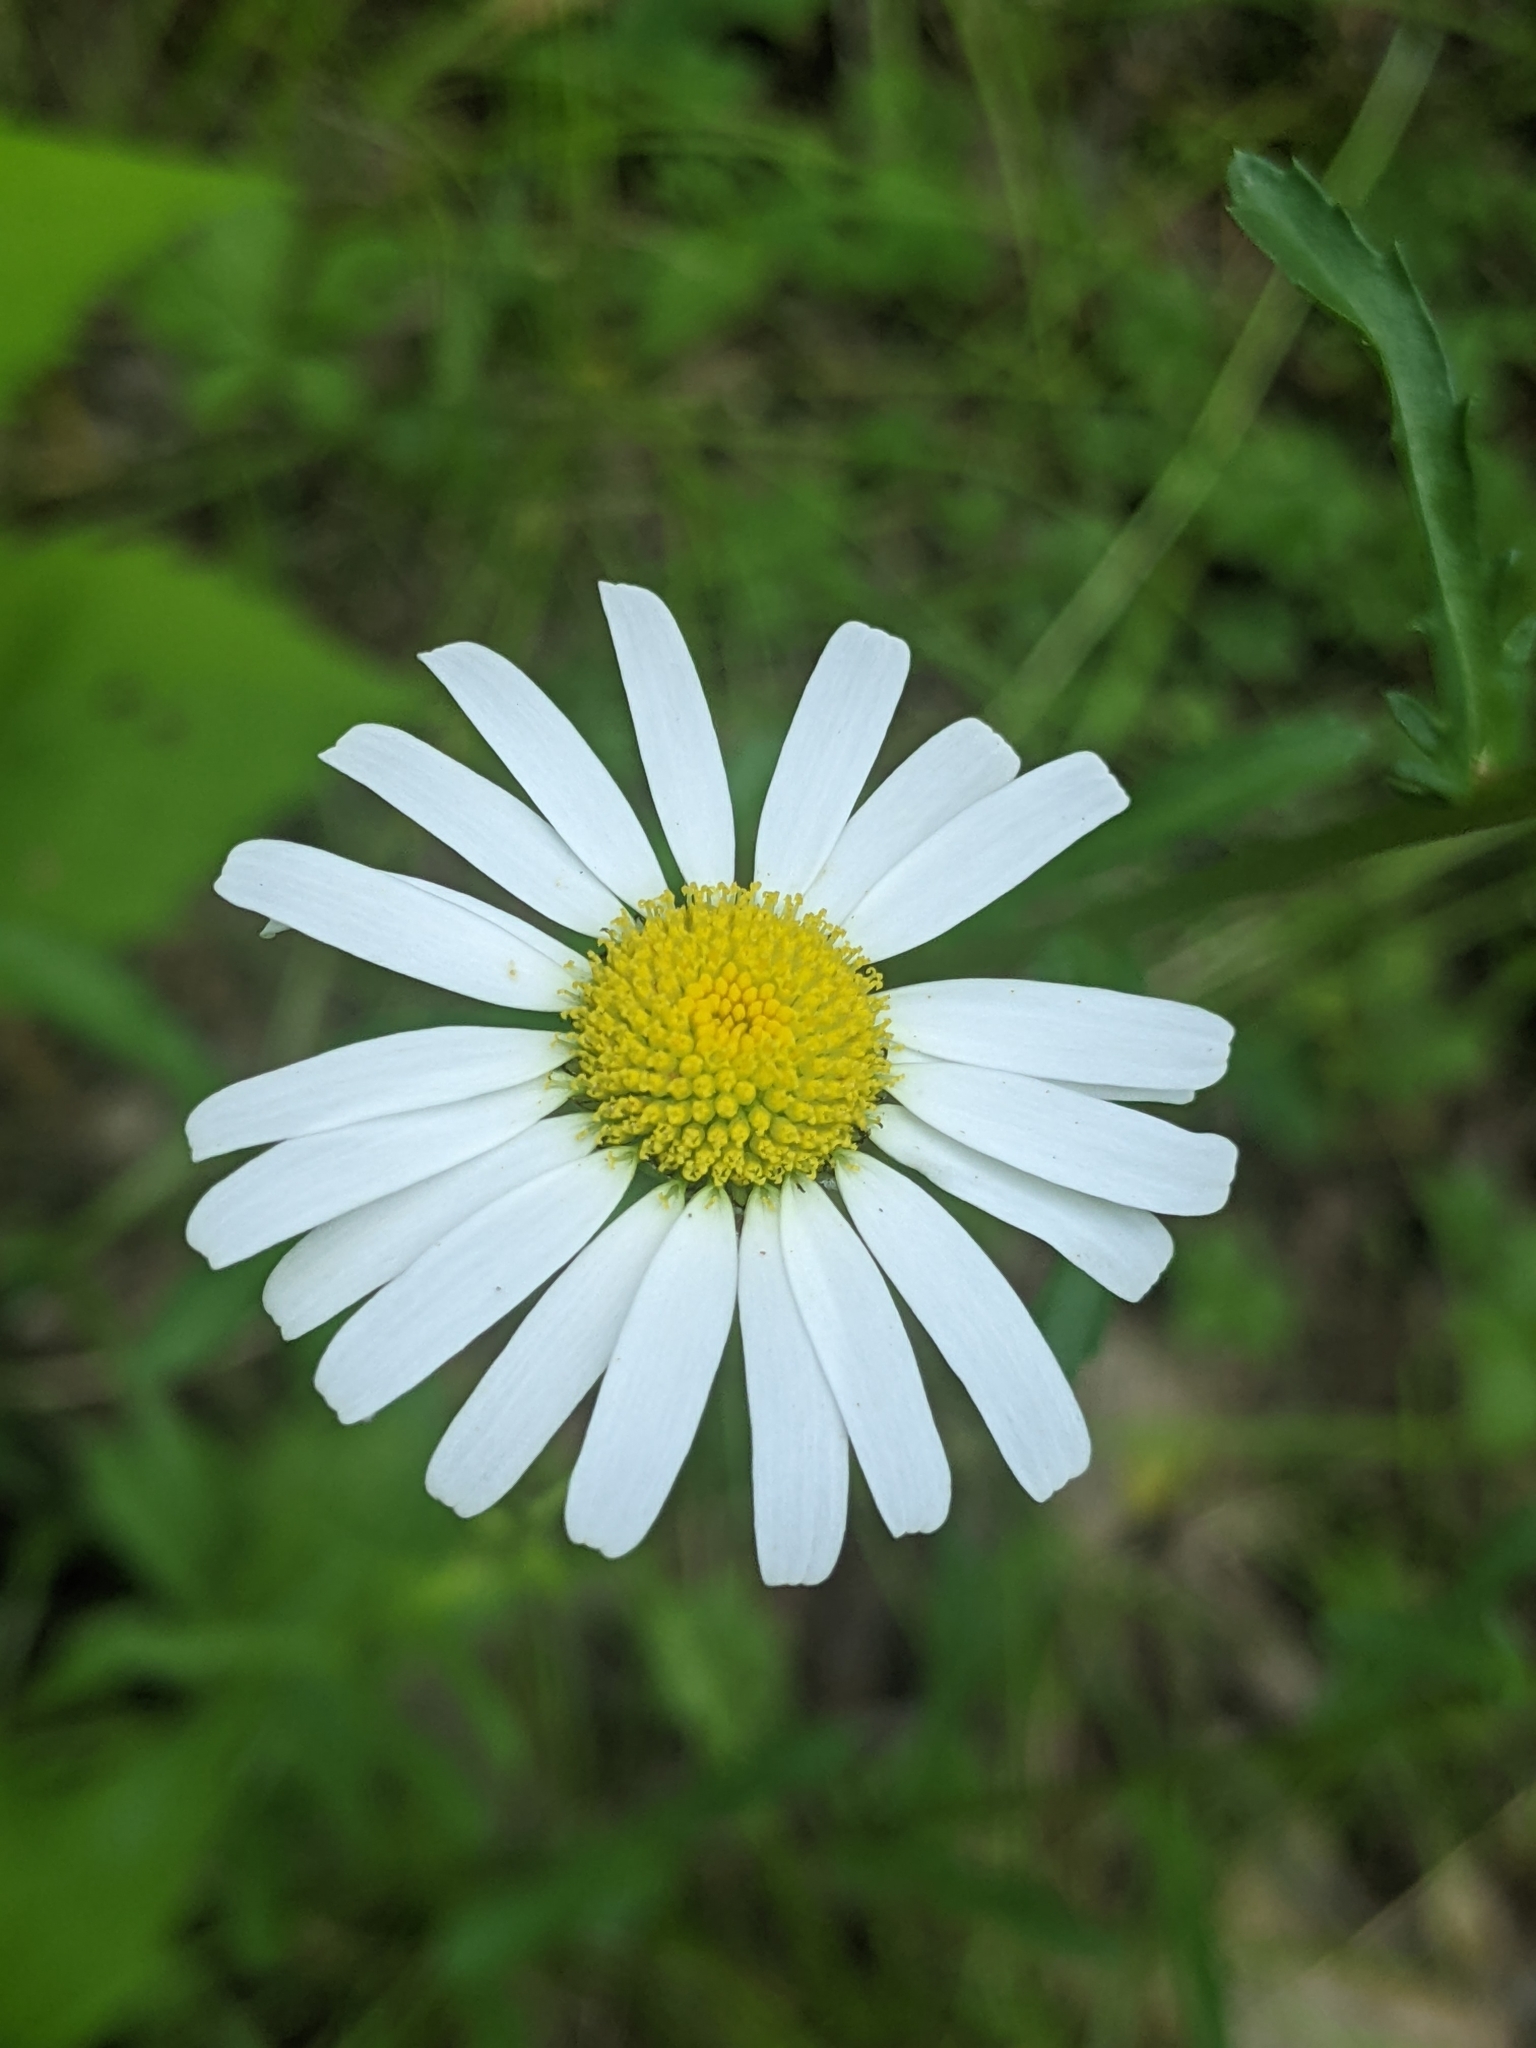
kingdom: Plantae
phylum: Tracheophyta
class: Magnoliopsida
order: Asterales
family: Asteraceae
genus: Leucanthemum
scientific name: Leucanthemum vulgare
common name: Oxeye daisy
